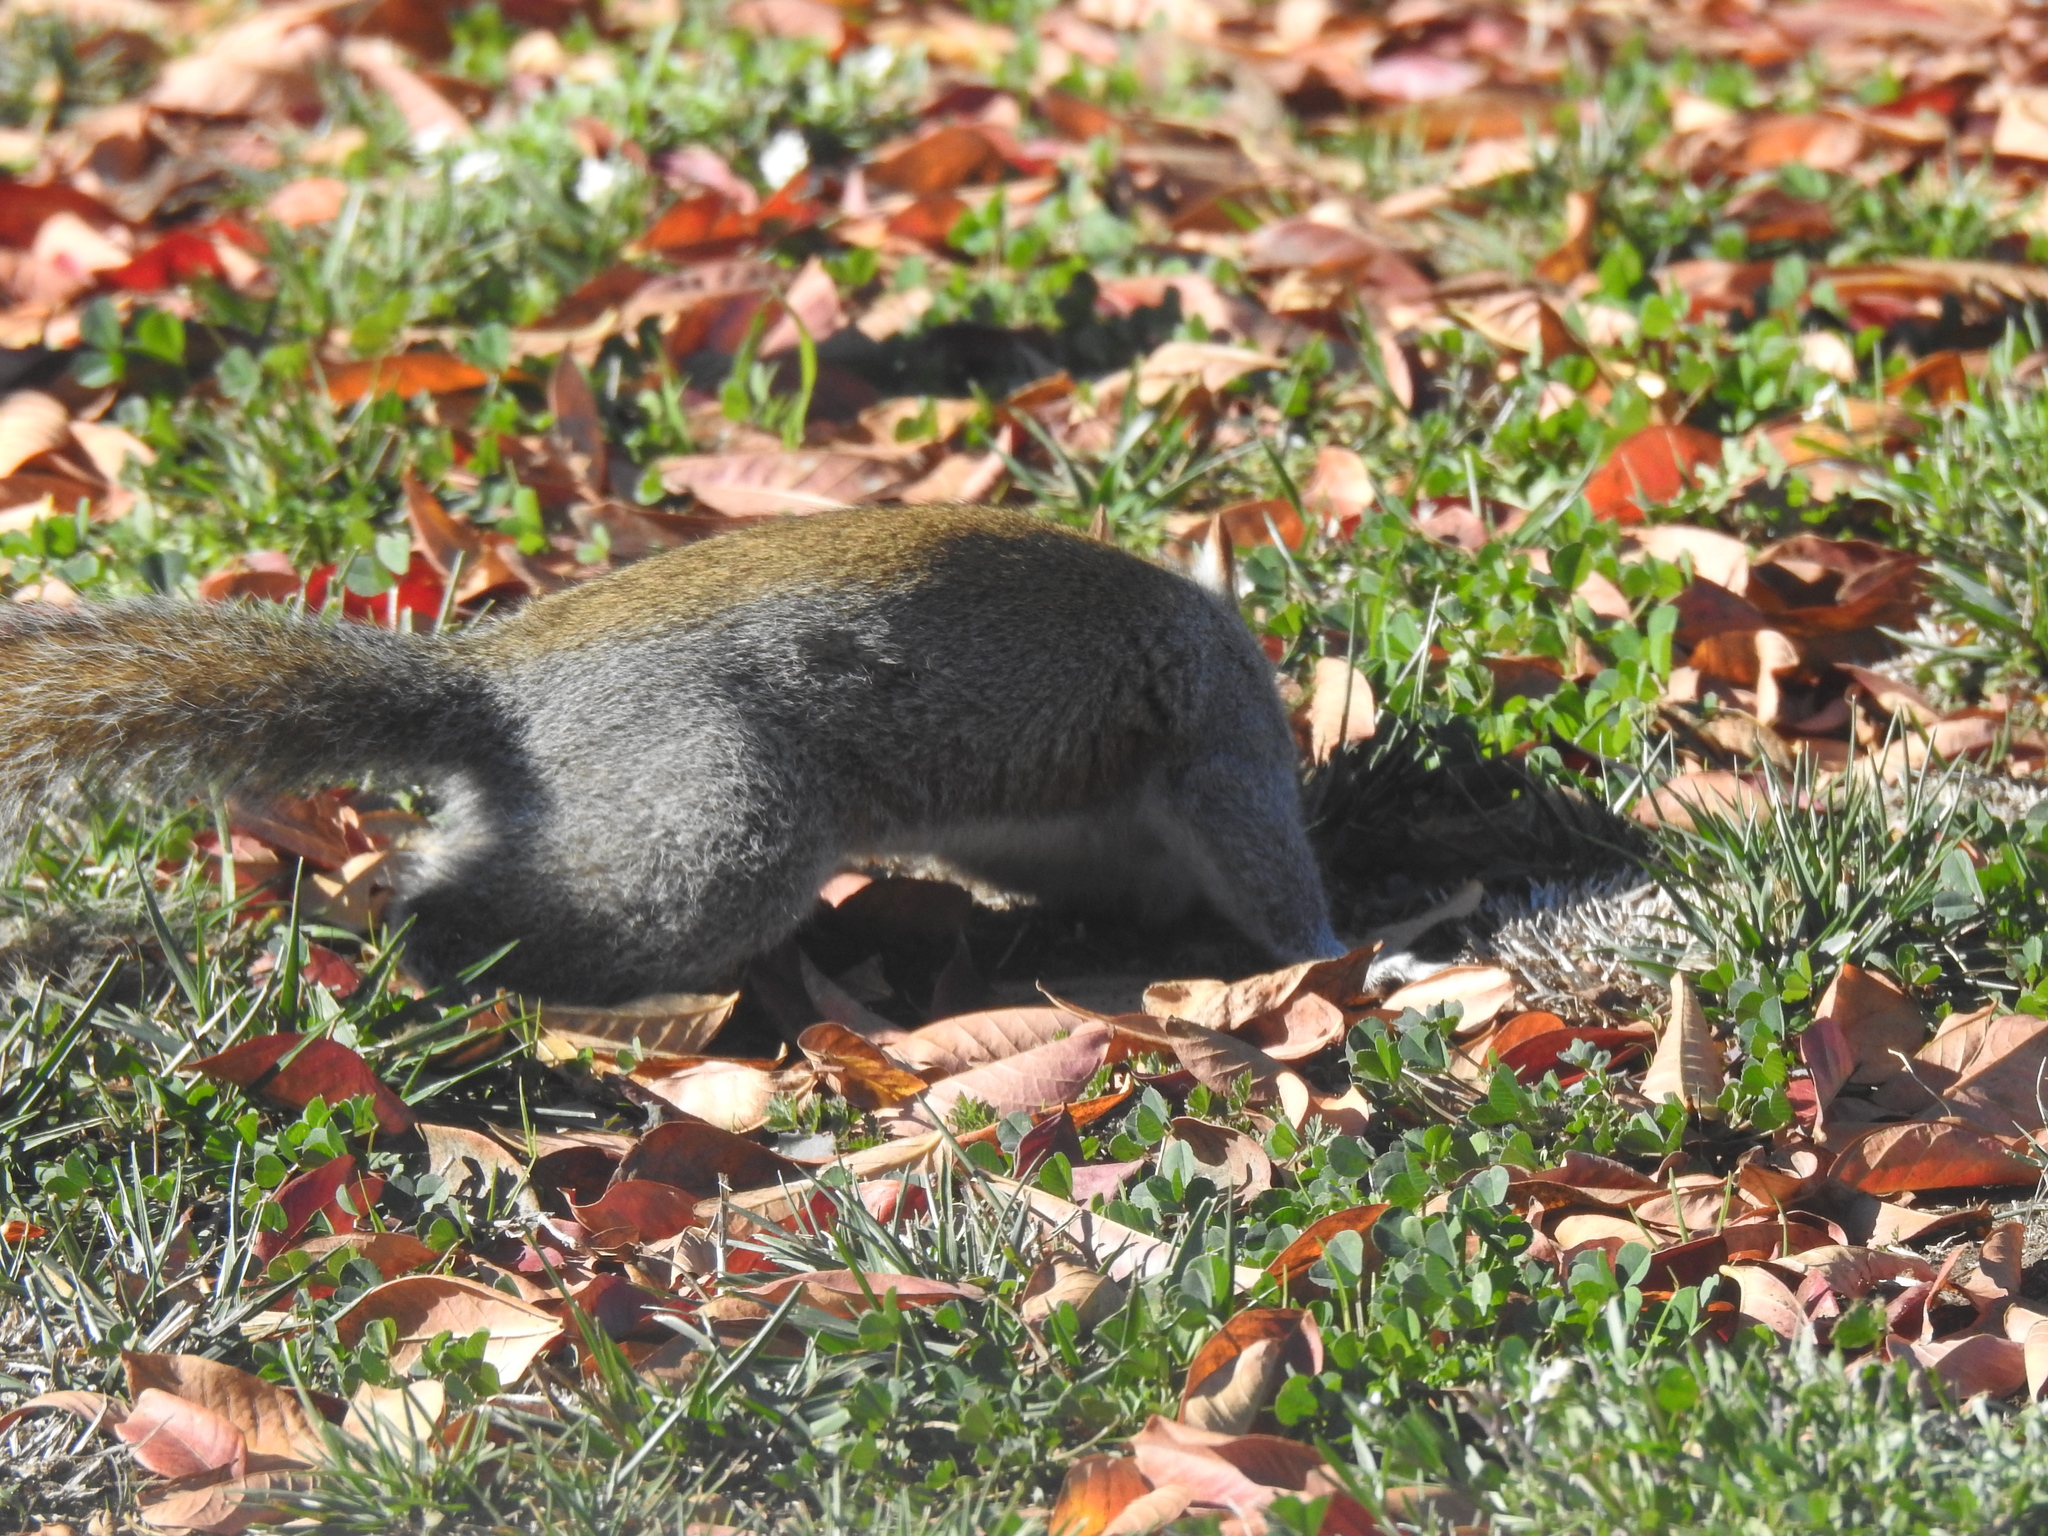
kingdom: Animalia
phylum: Chordata
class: Mammalia
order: Rodentia
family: Sciuridae
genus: Sciurus
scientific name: Sciurus carolinensis
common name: Eastern gray squirrel
